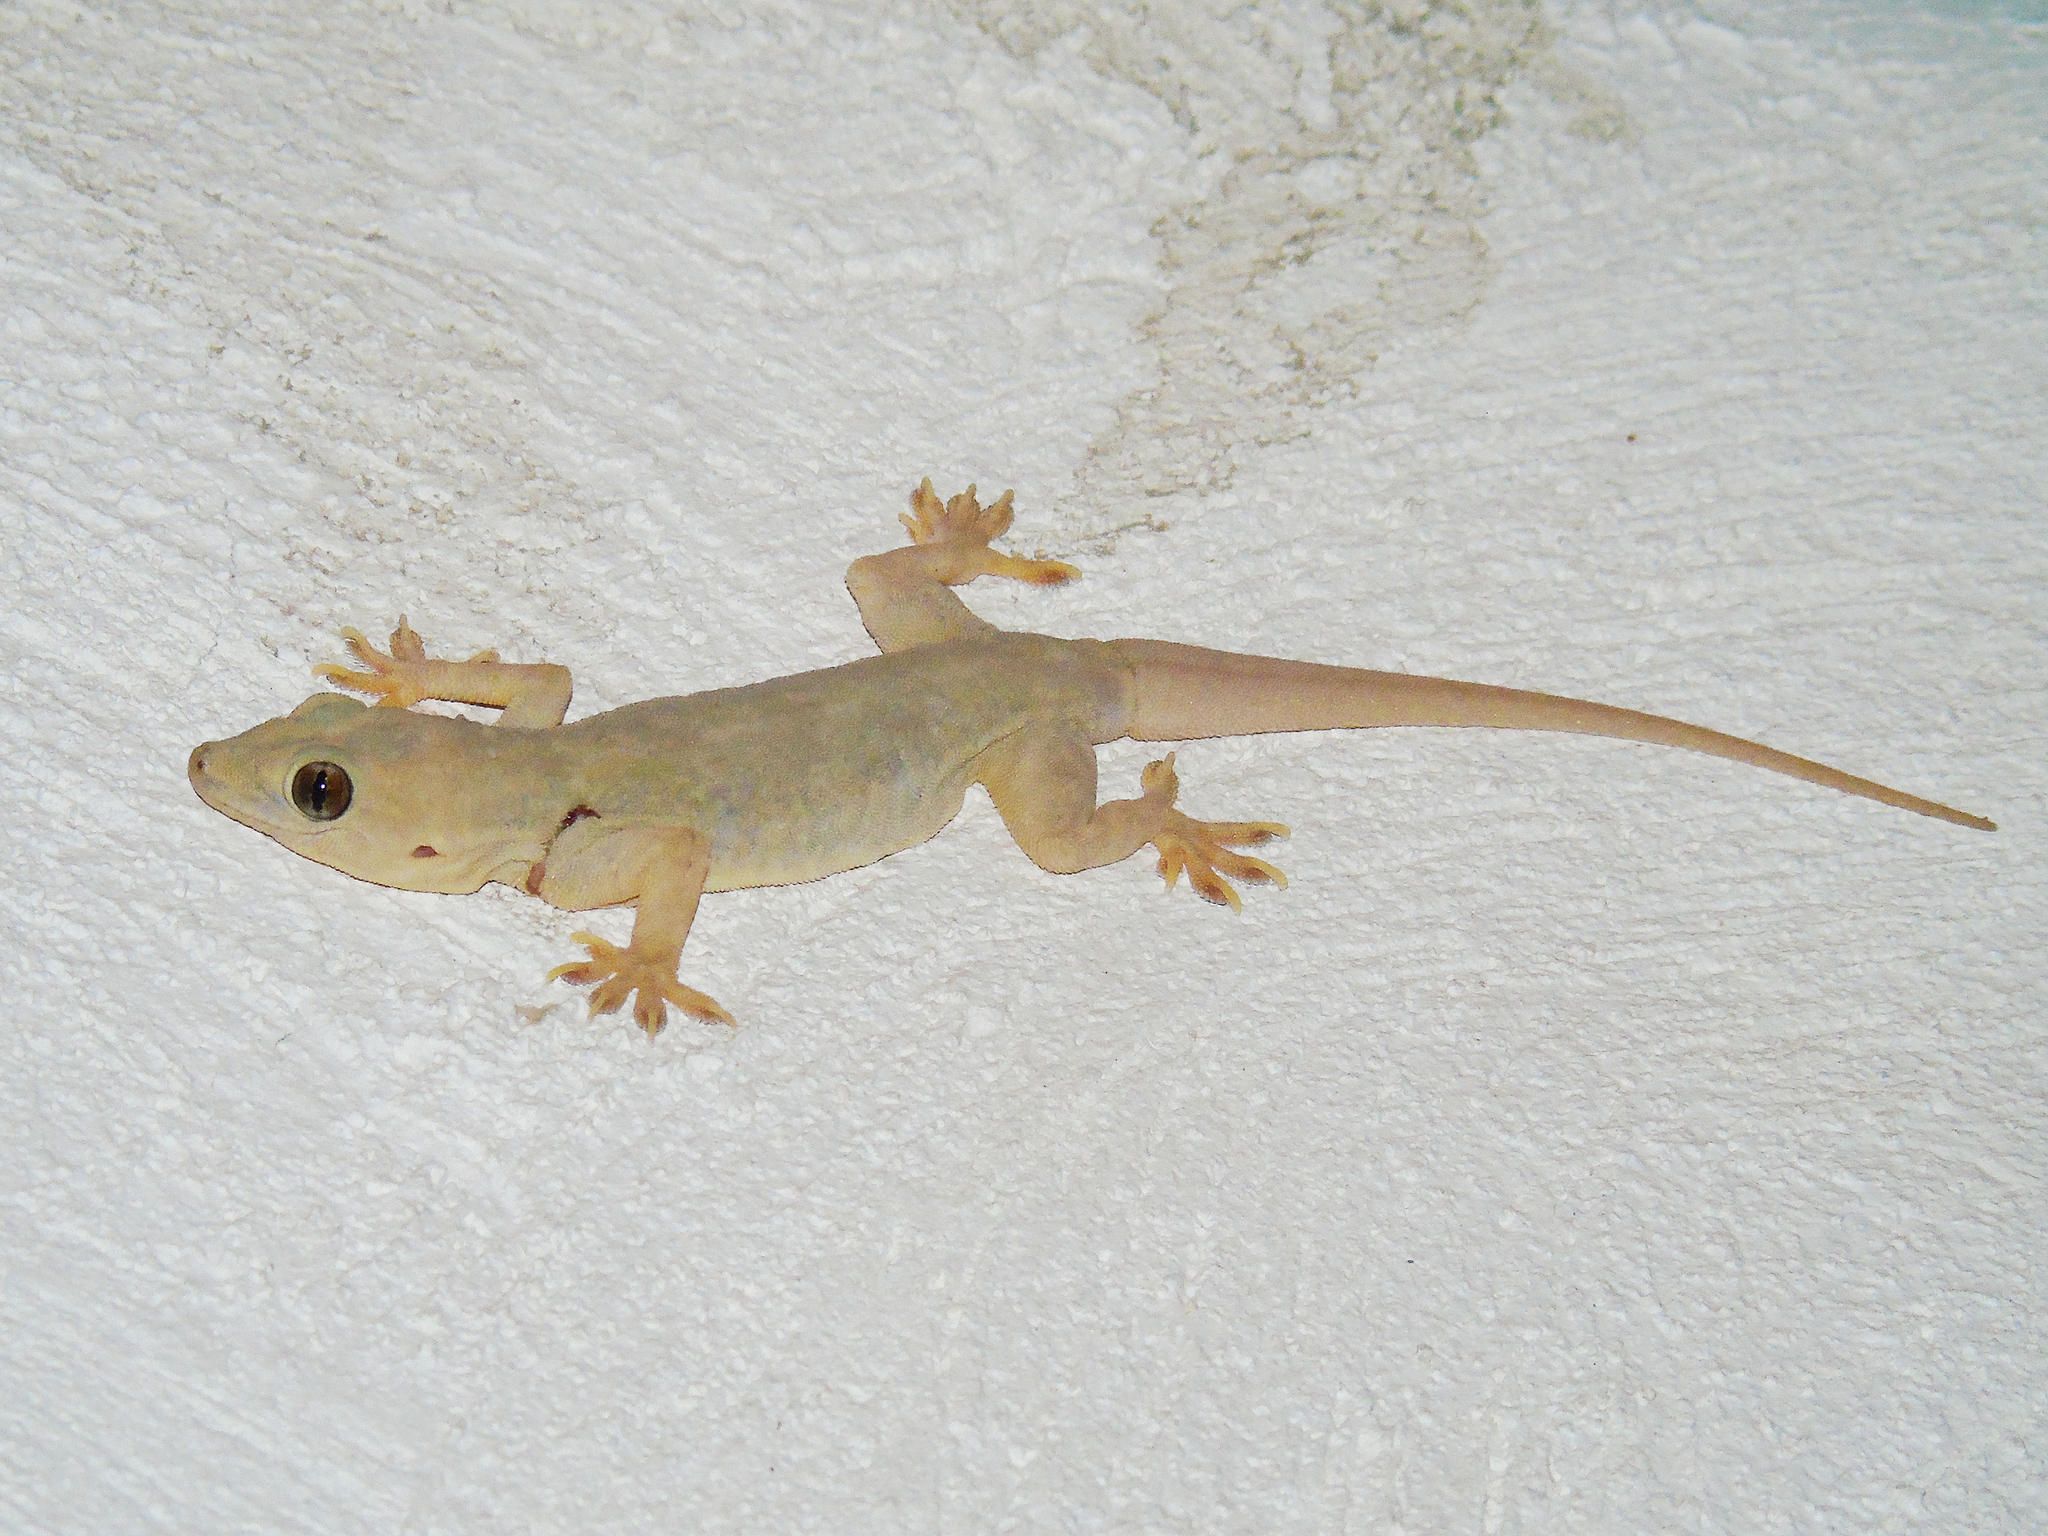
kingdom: Animalia
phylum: Chordata
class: Squamata
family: Gekkonidae
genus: Hemidactylus
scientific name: Hemidactylus flaviviridis
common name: Northern house gecko
